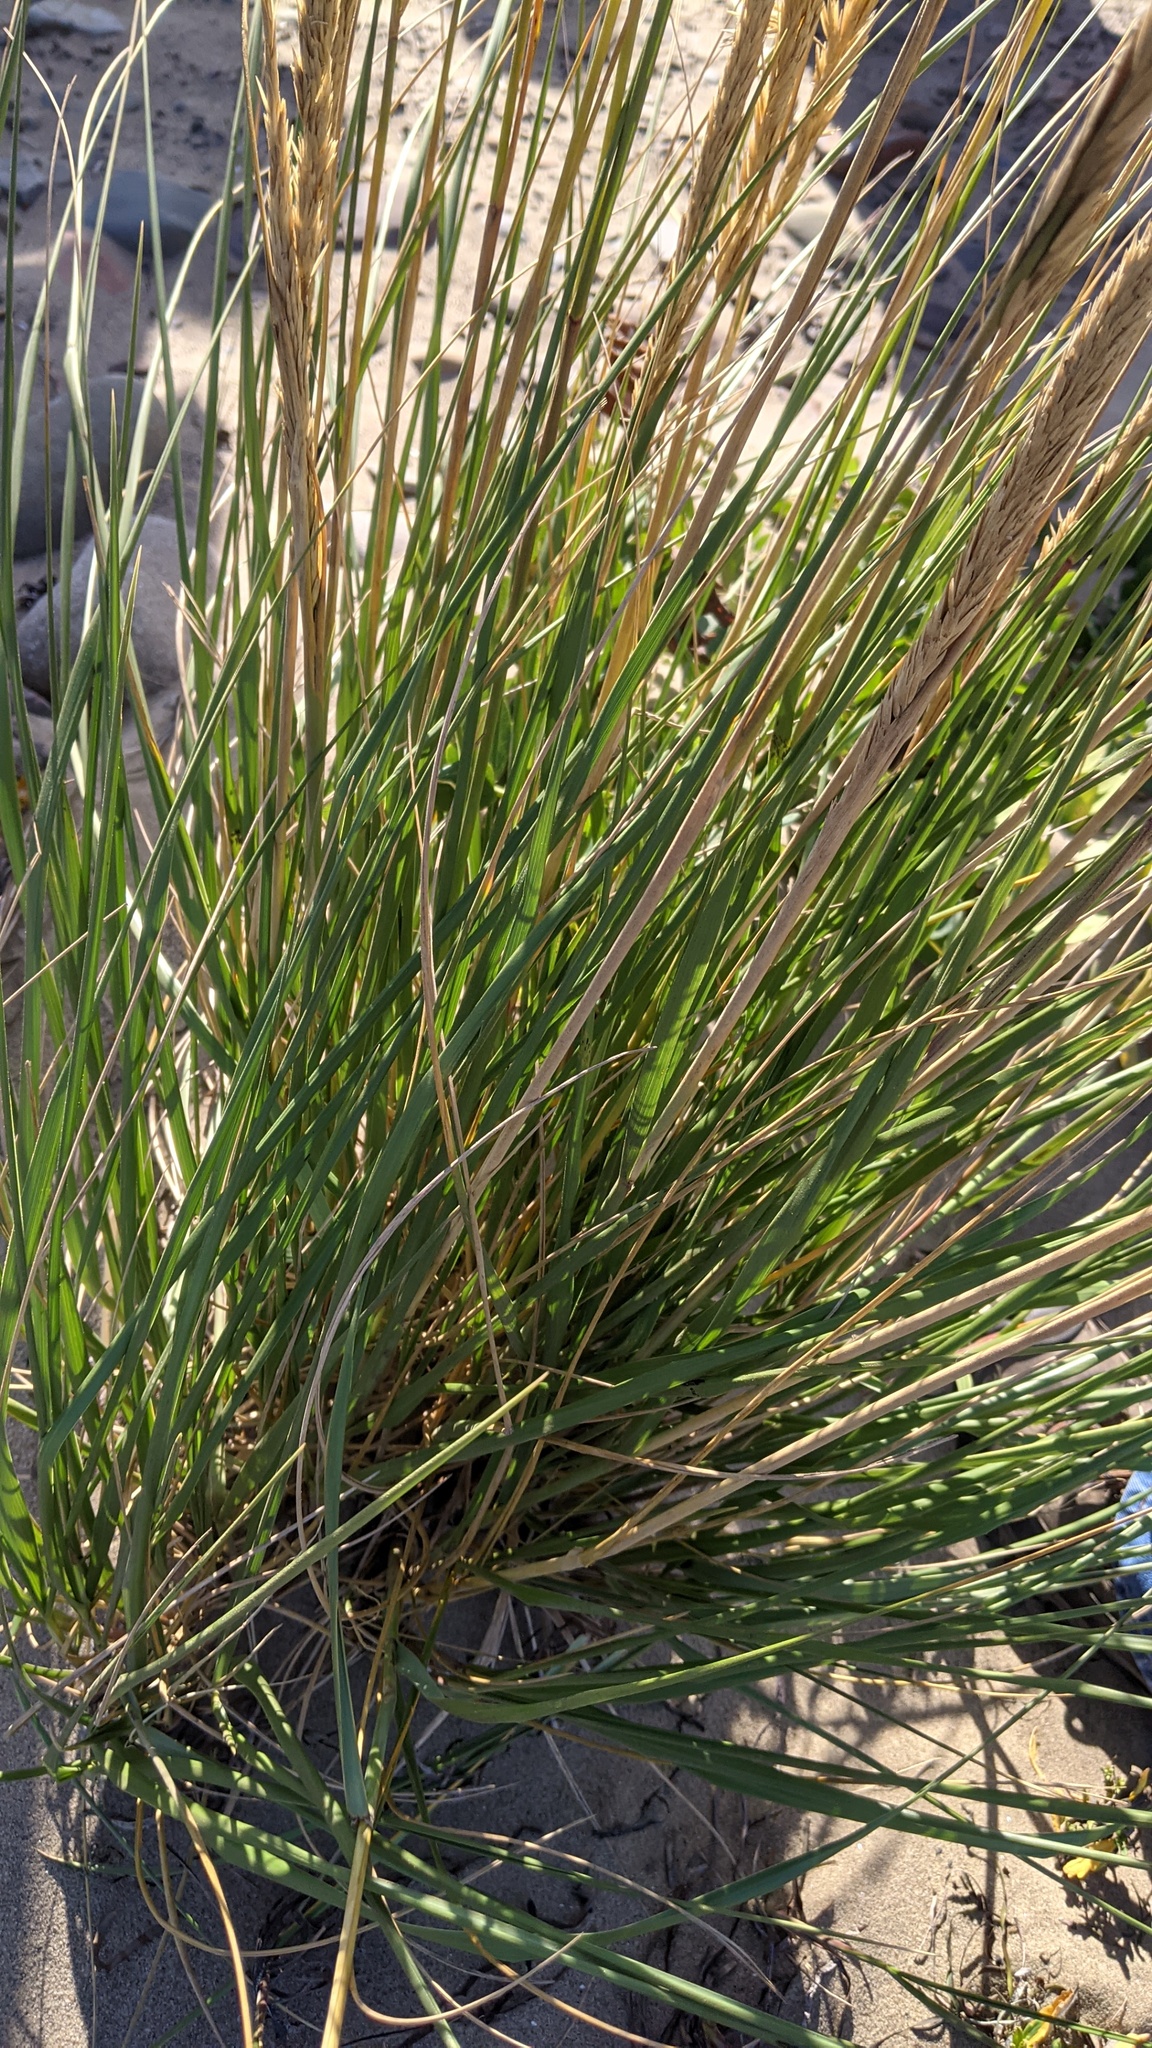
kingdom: Plantae
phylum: Tracheophyta
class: Liliopsida
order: Poales
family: Poaceae
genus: Calamagrostis
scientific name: Calamagrostis breviligulata
